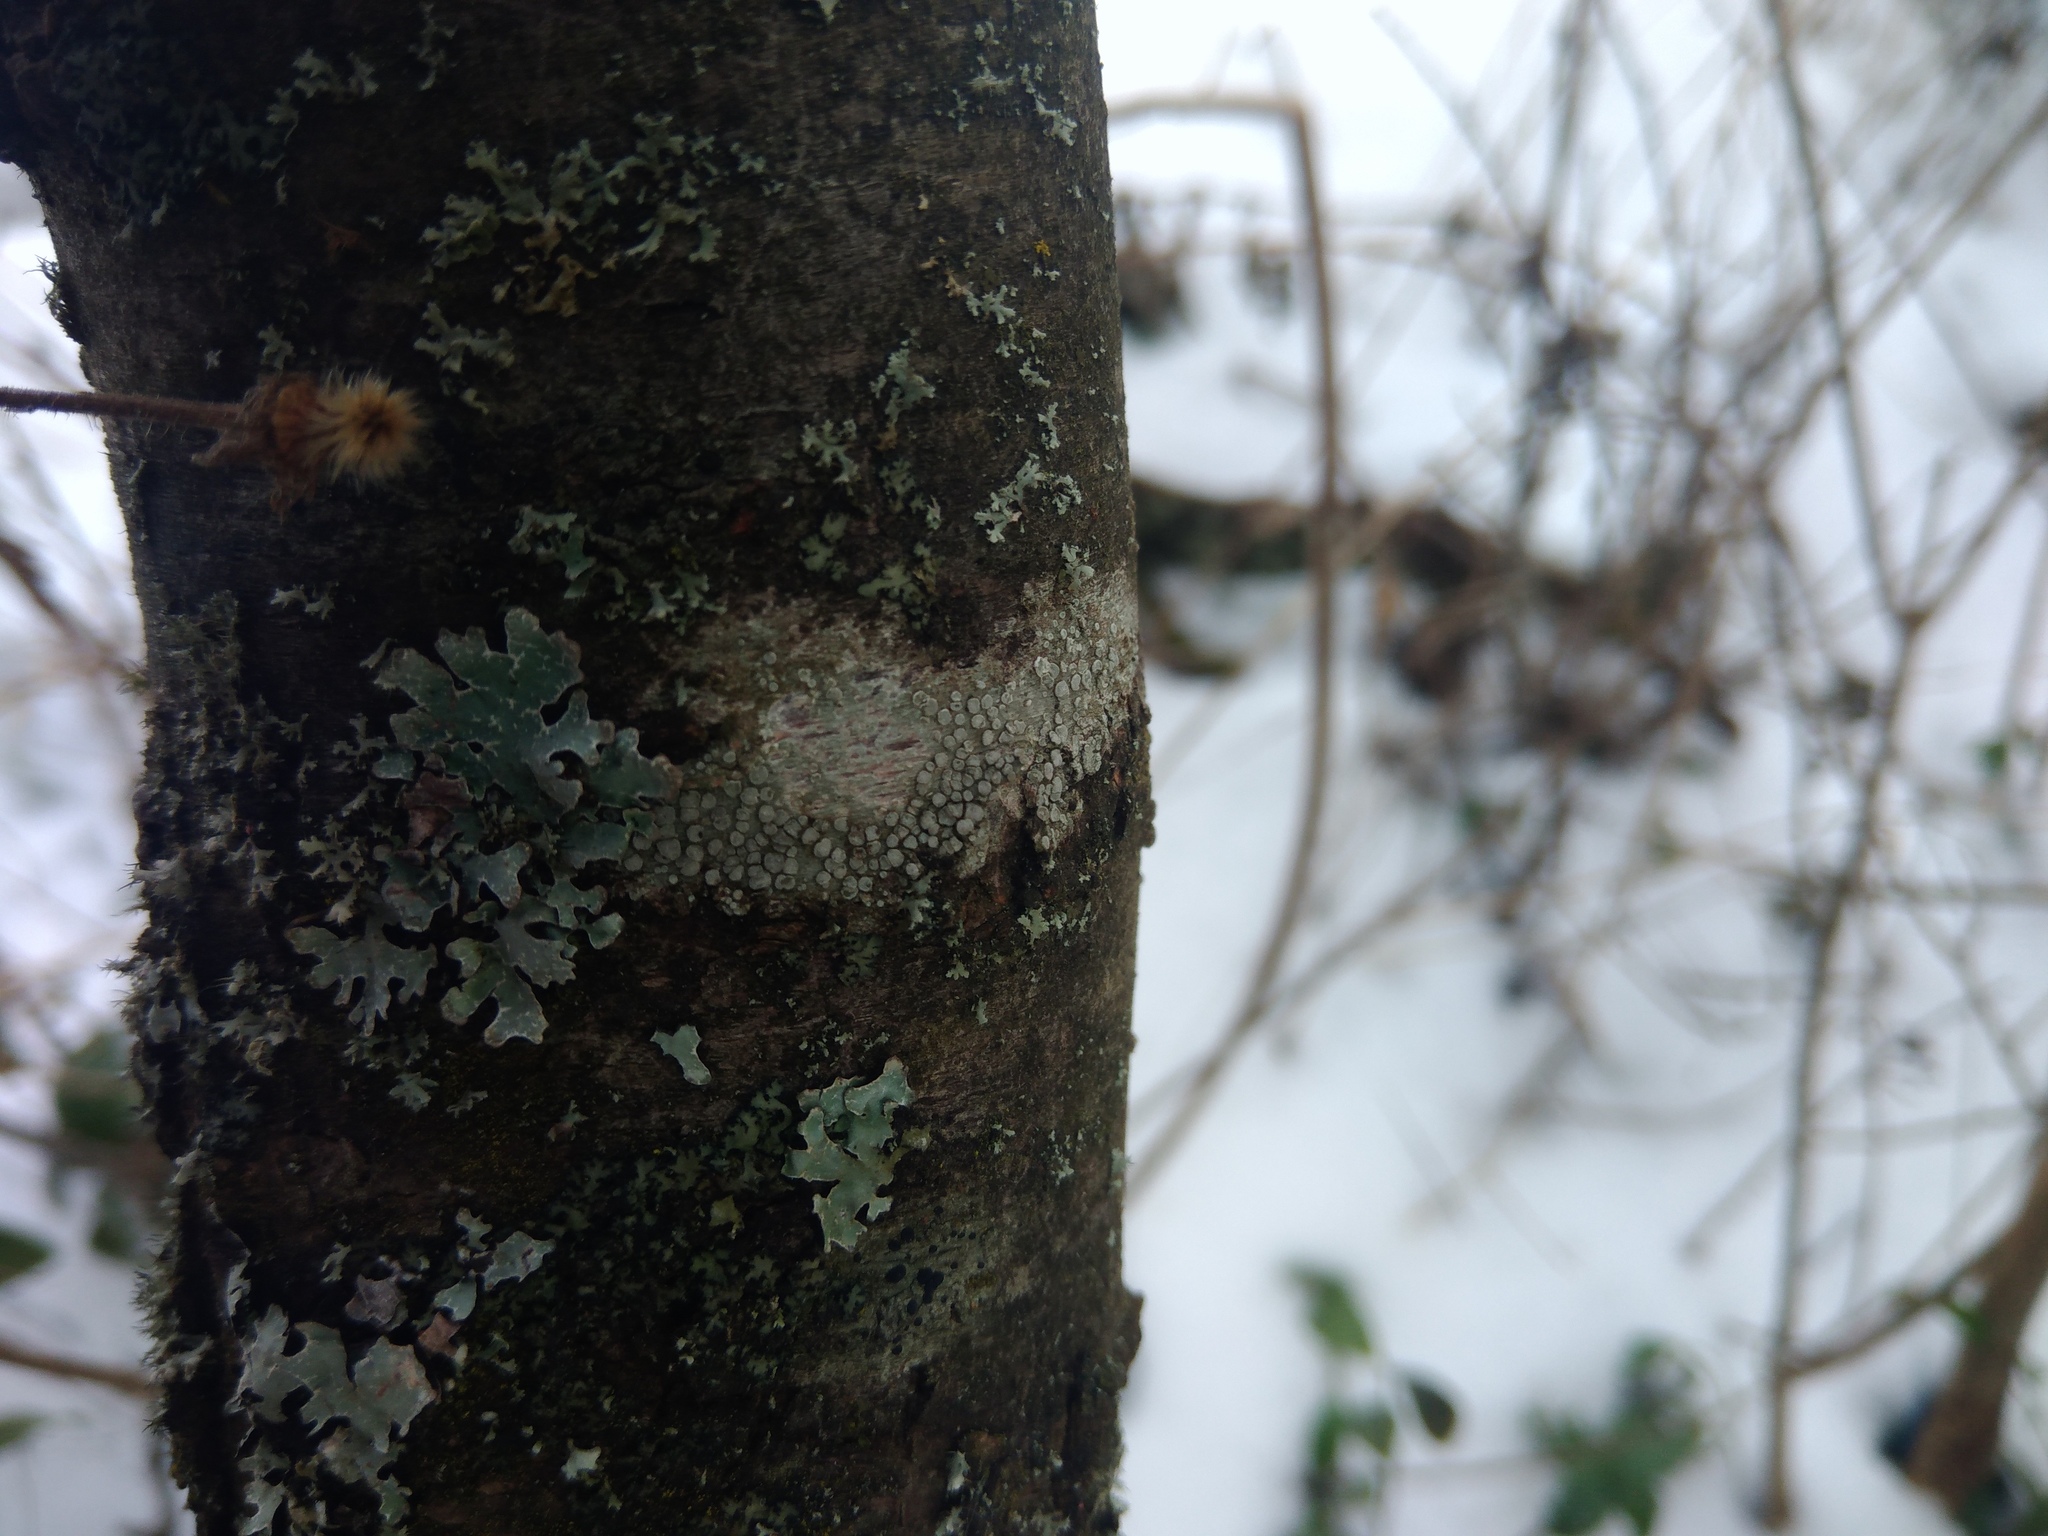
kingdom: Fungi
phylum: Ascomycota
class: Lecanoromycetes
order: Lecanorales
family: Lecanoraceae
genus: Glaucomaria
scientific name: Glaucomaria carpinea
